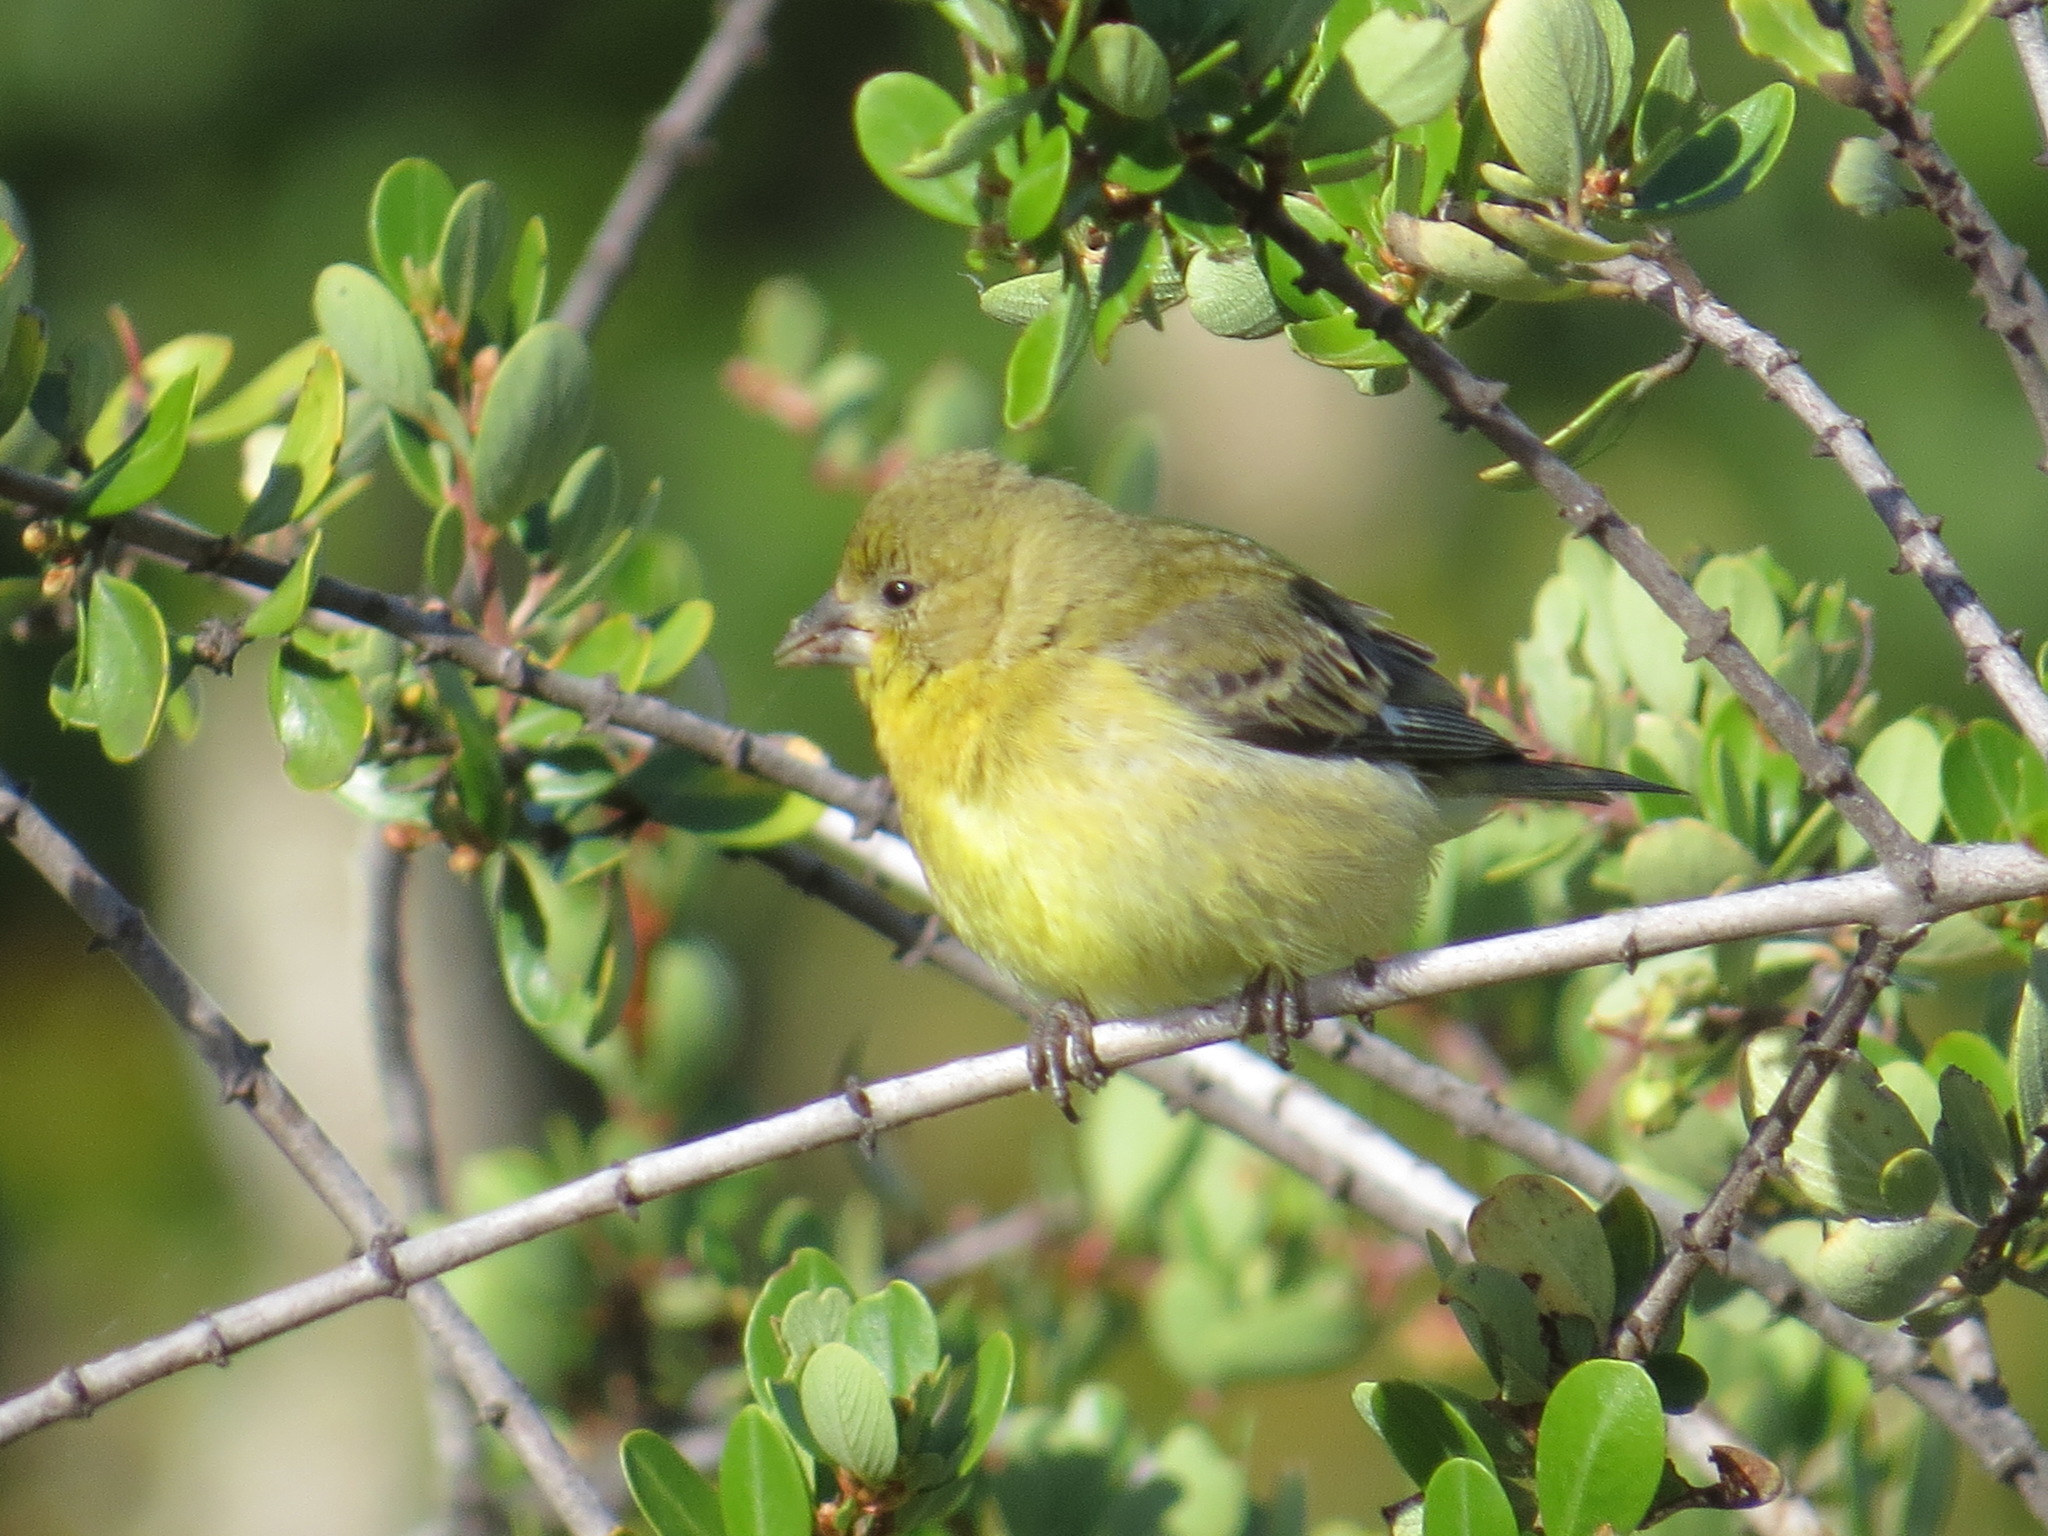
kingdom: Animalia
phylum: Chordata
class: Aves
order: Passeriformes
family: Fringillidae
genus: Spinus
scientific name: Spinus psaltria
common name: Lesser goldfinch
